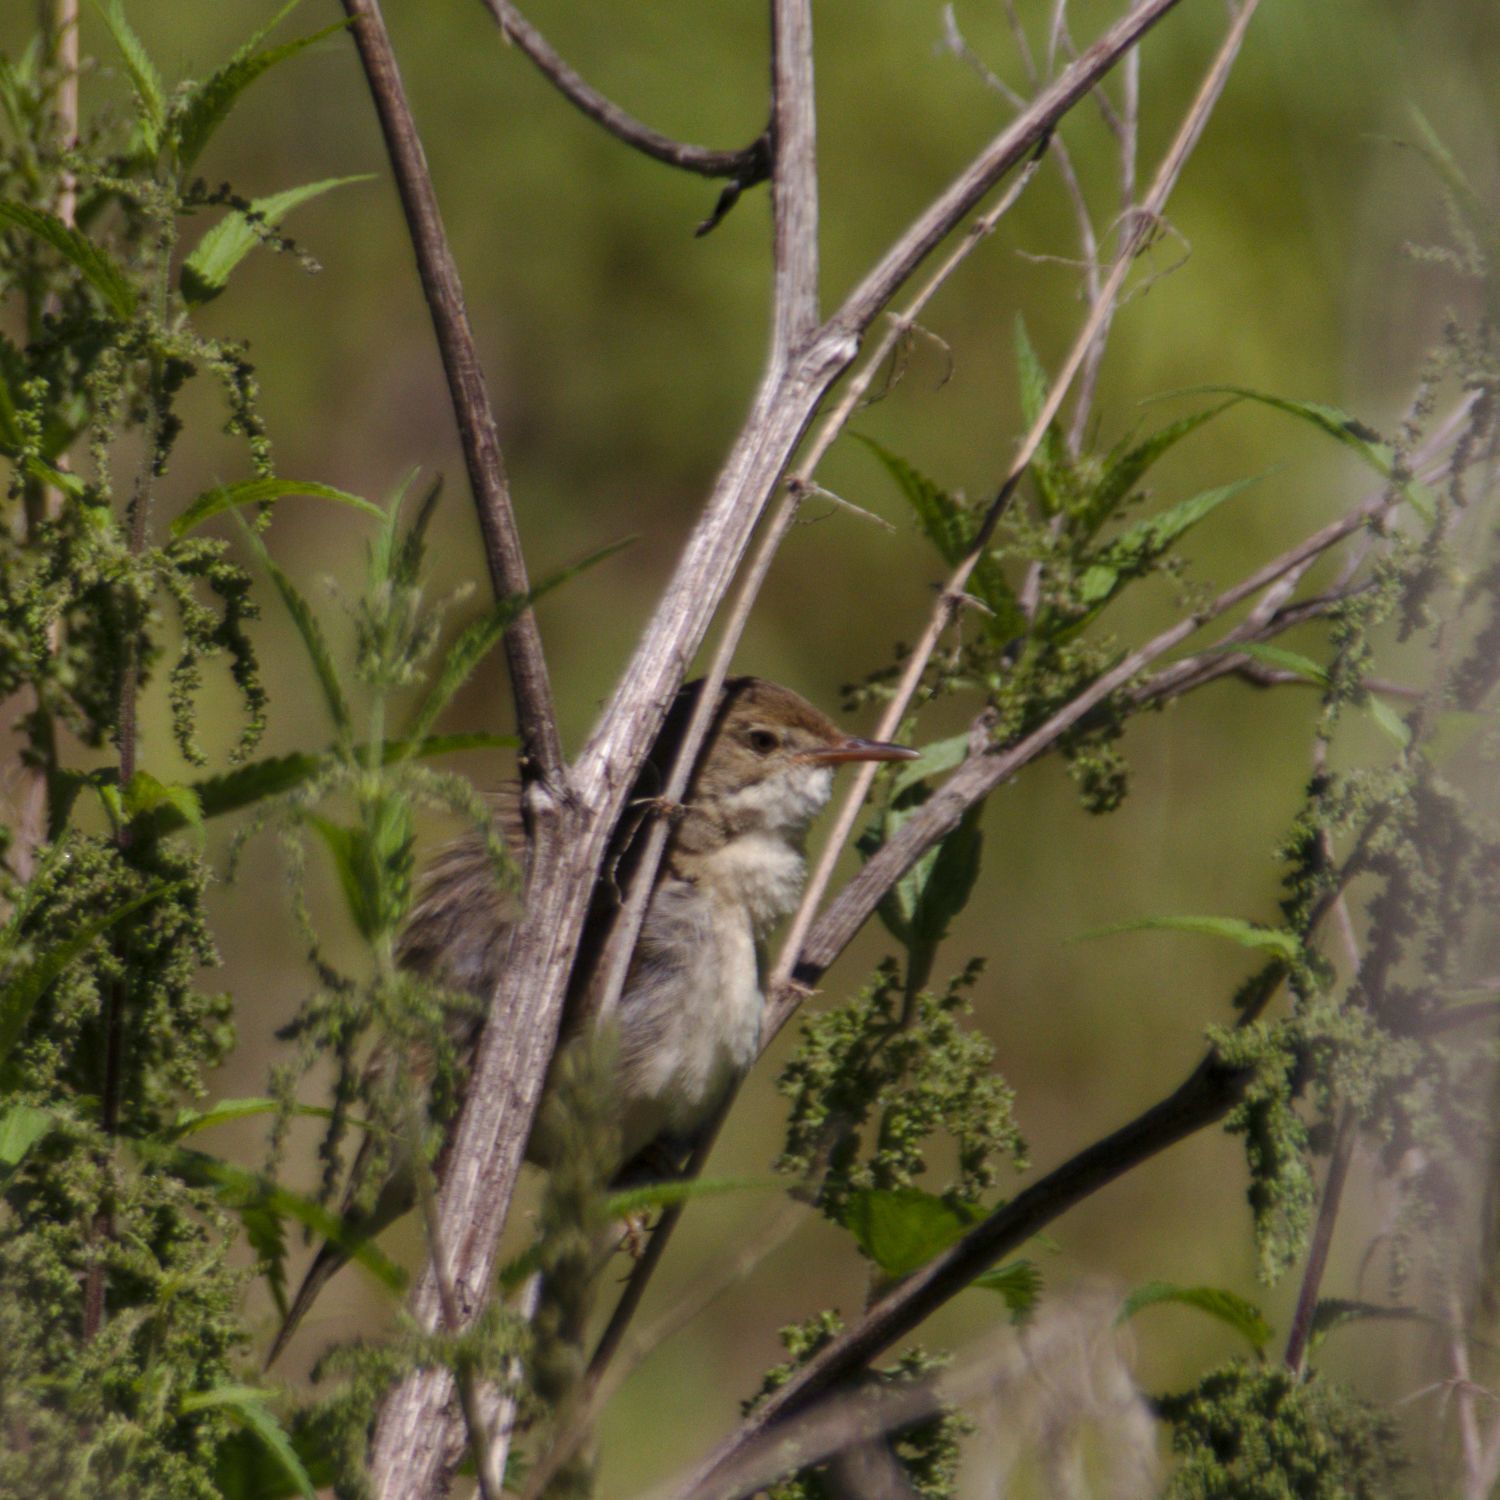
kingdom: Animalia
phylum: Chordata
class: Aves
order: Passeriformes
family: Acrocephalidae
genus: Acrocephalus
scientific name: Acrocephalus dumetorum
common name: Blyth's reed warbler
